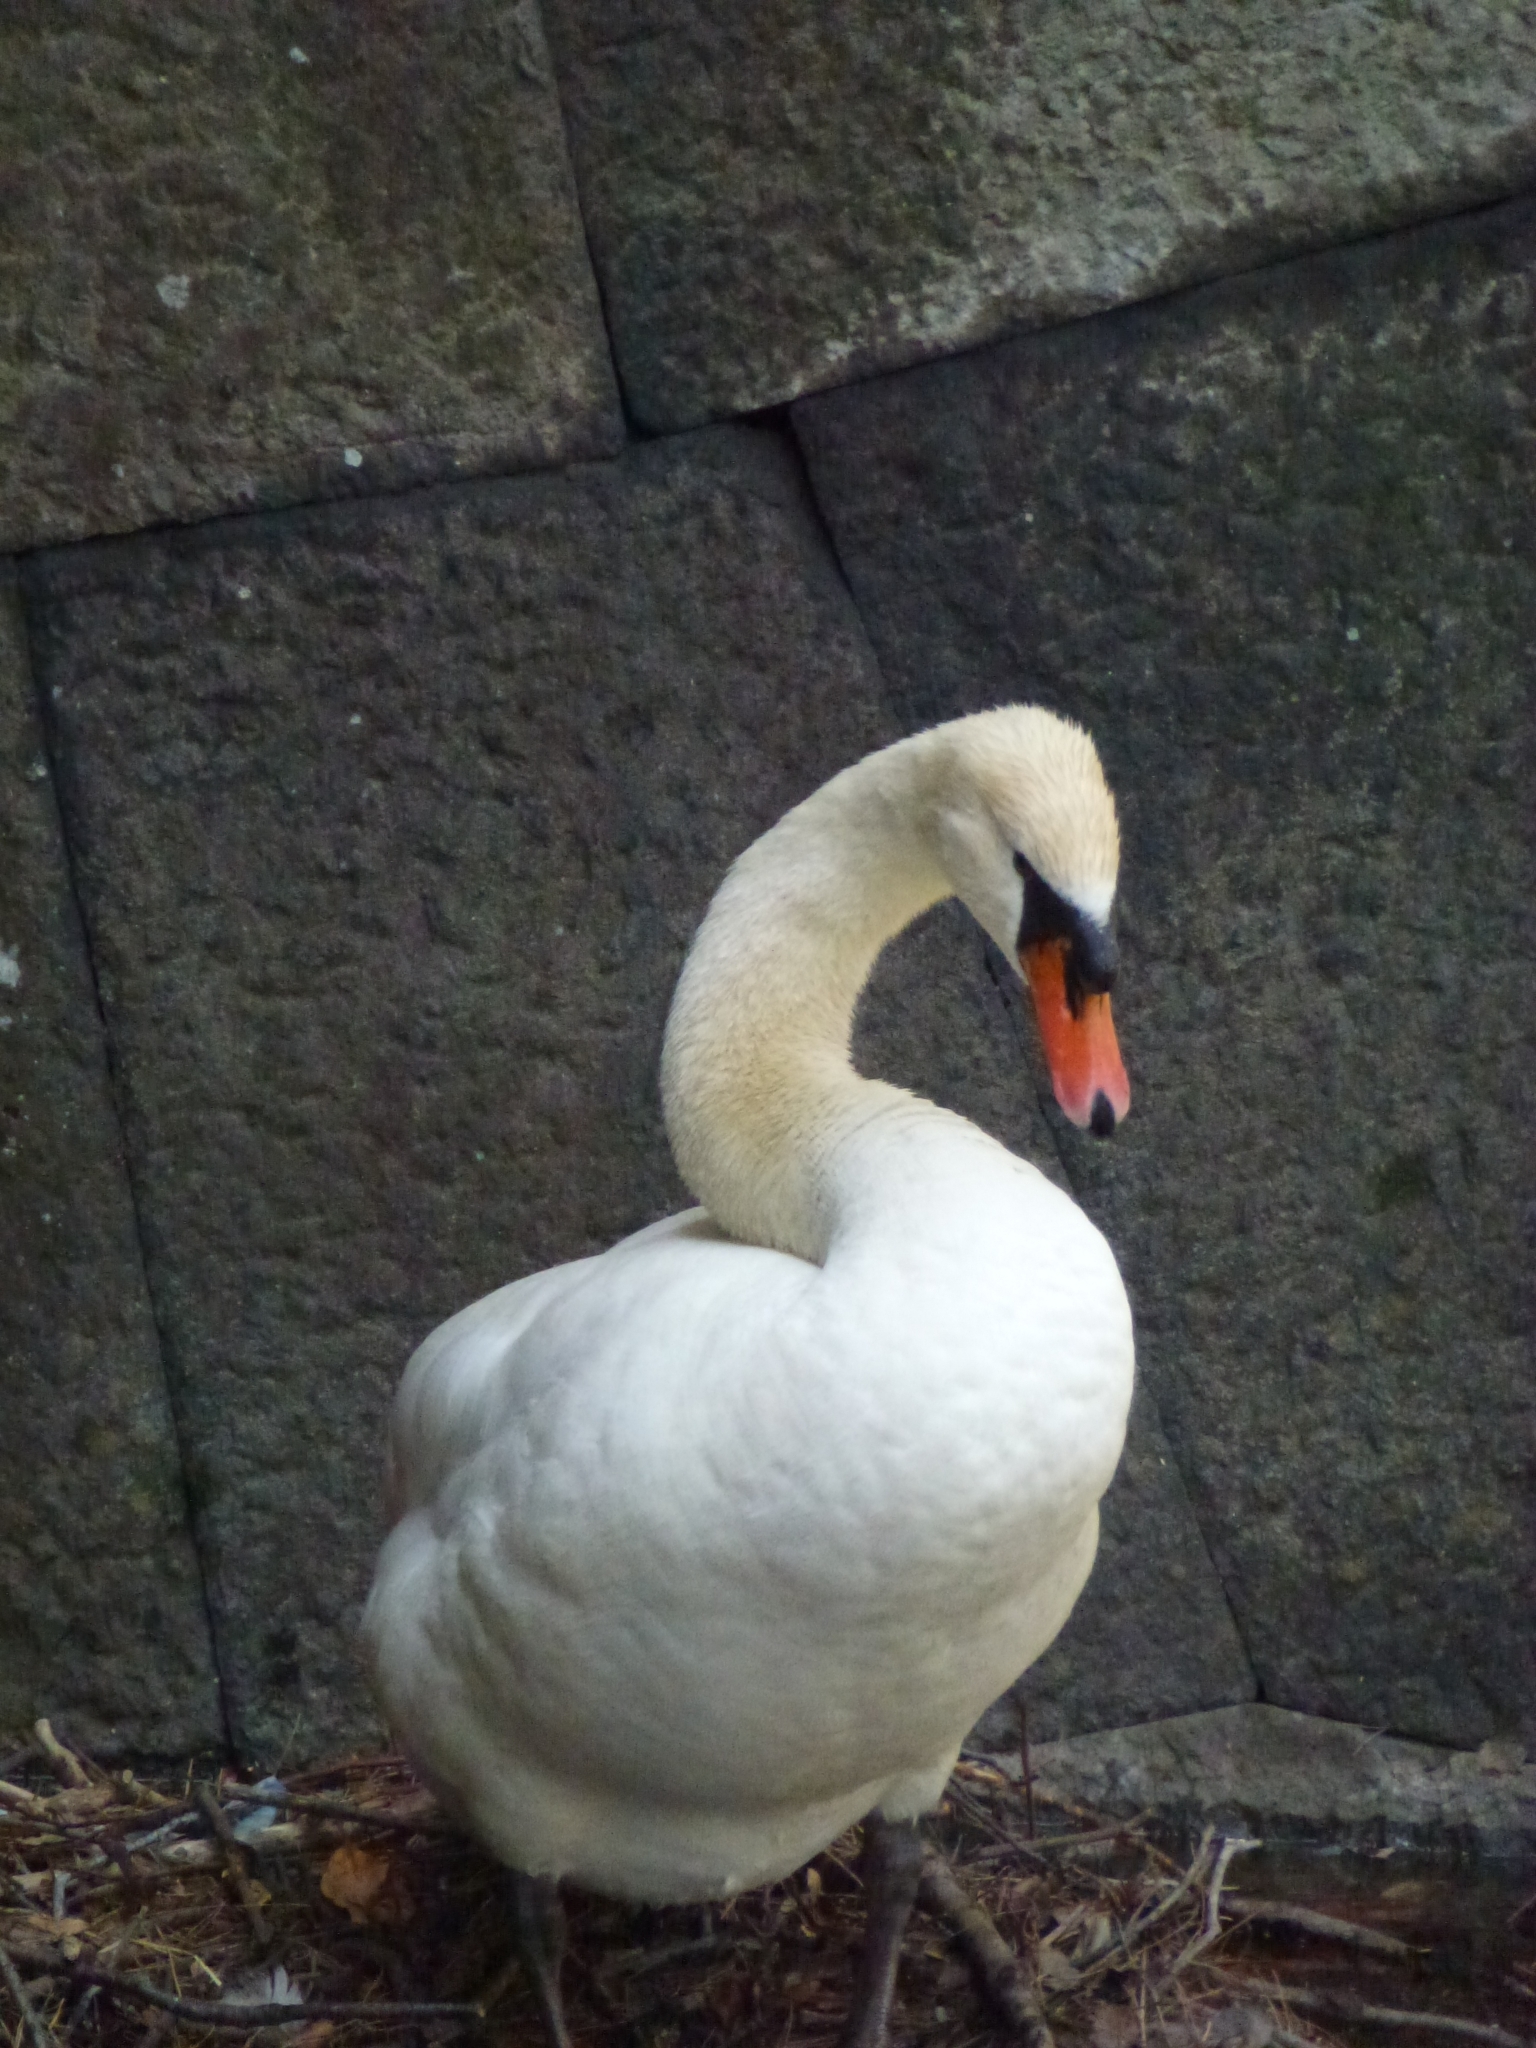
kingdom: Animalia
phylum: Chordata
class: Aves
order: Anseriformes
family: Anatidae
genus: Cygnus
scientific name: Cygnus olor
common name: Mute swan
